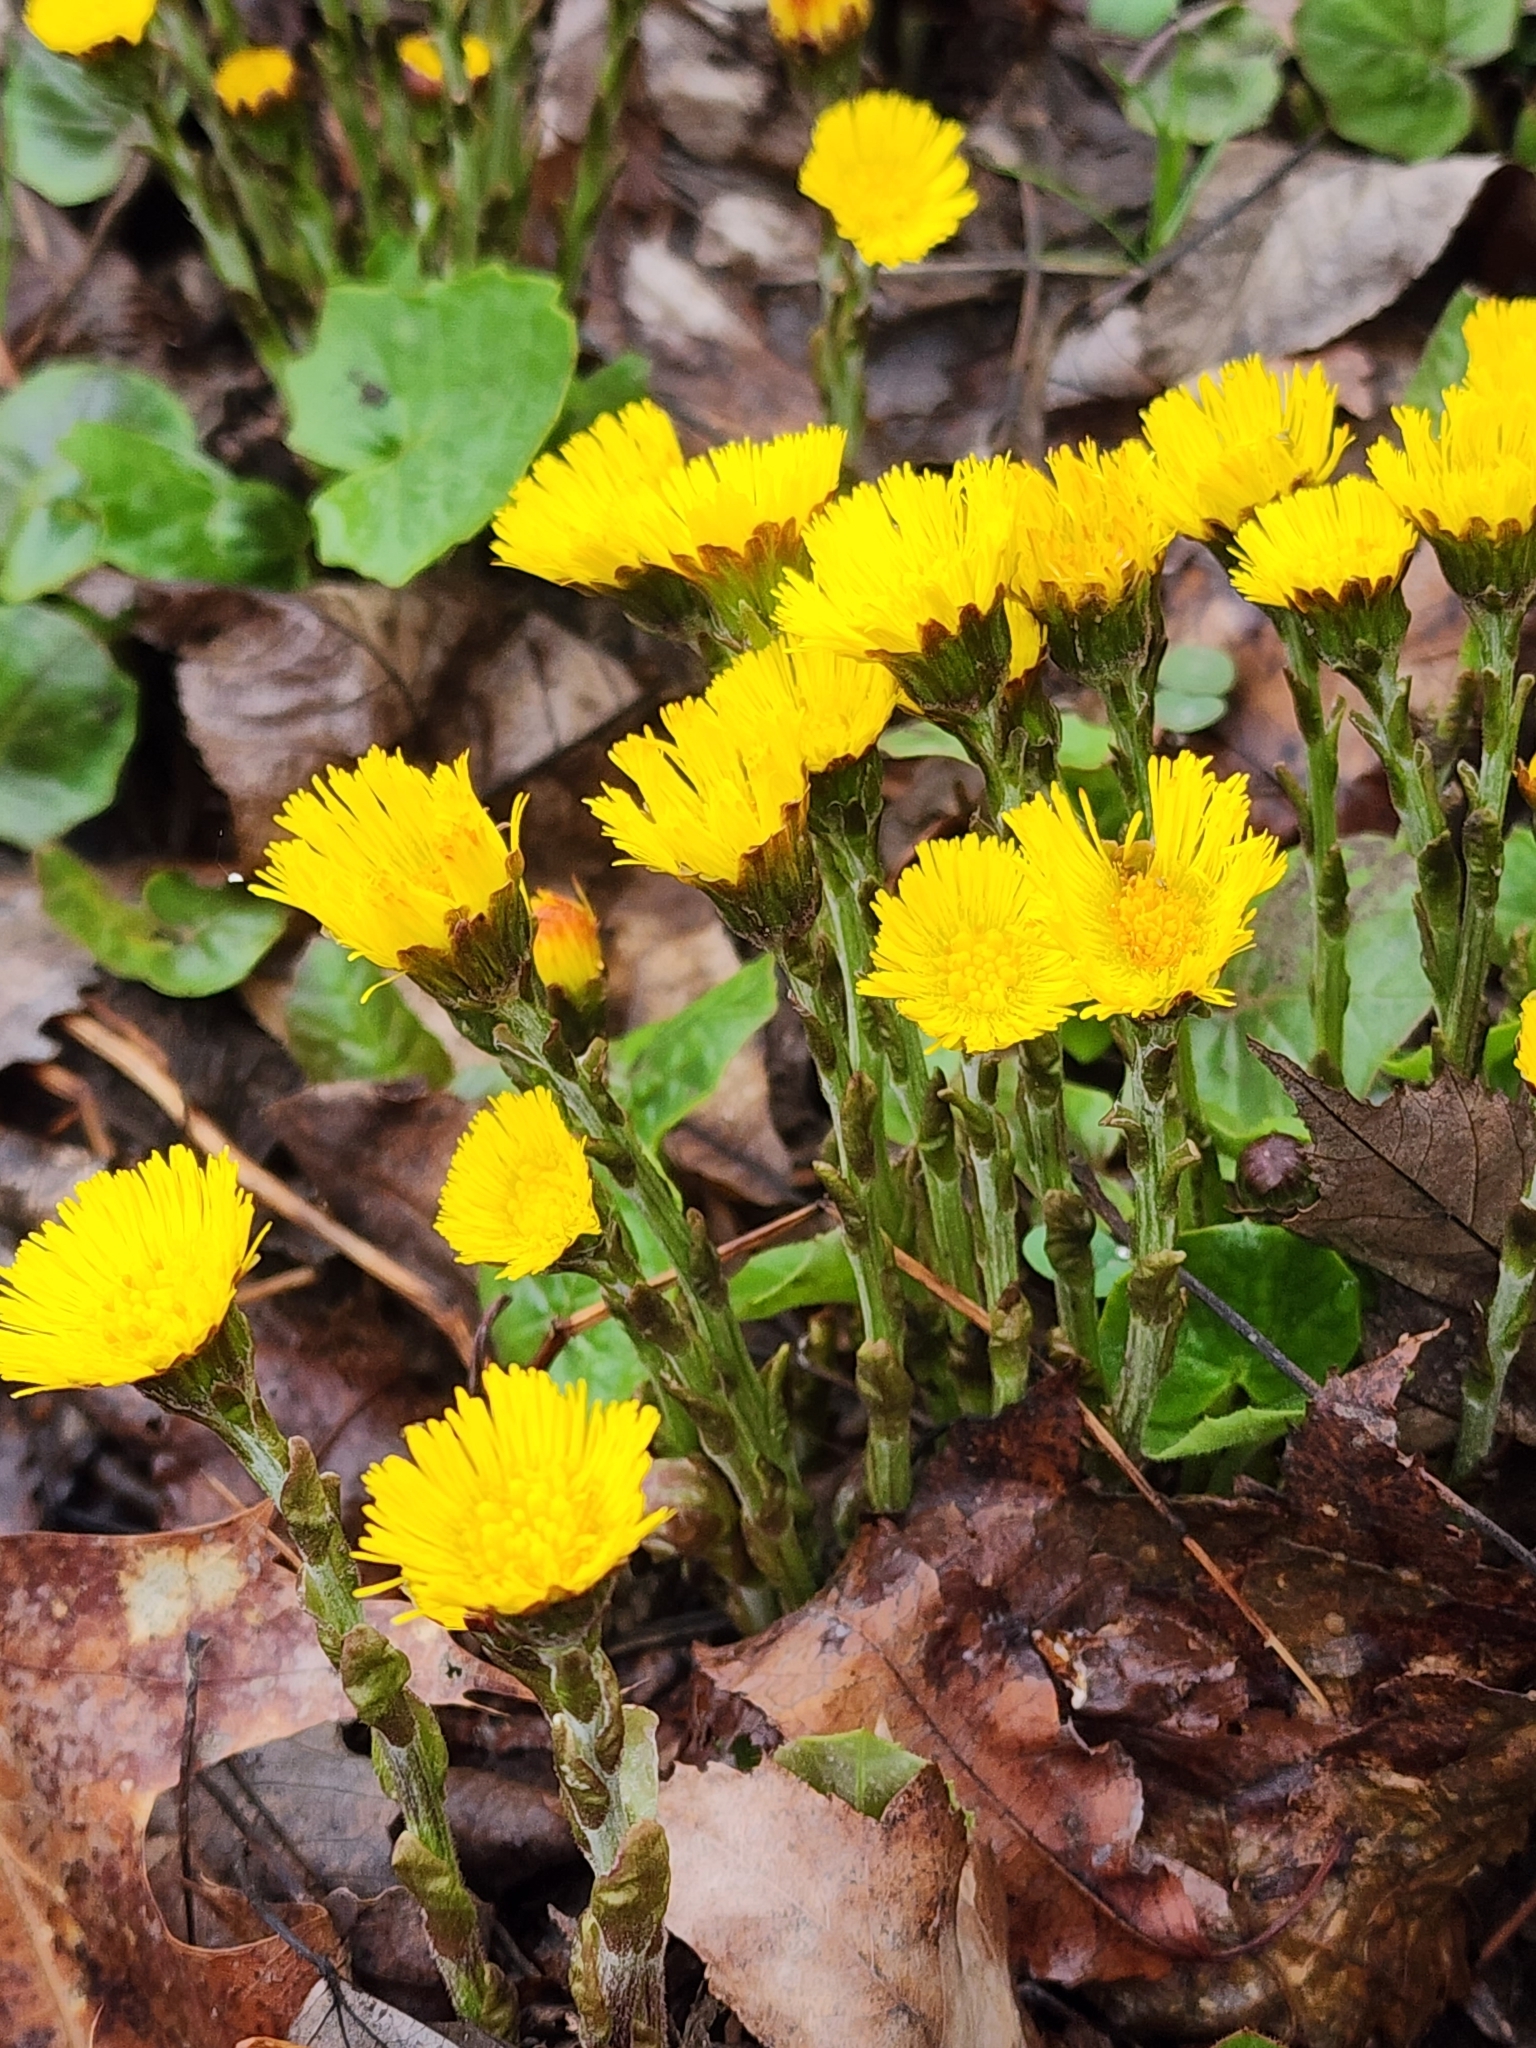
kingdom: Plantae
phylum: Tracheophyta
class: Magnoliopsida
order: Asterales
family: Asteraceae
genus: Tussilago
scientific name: Tussilago farfara
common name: Coltsfoot
